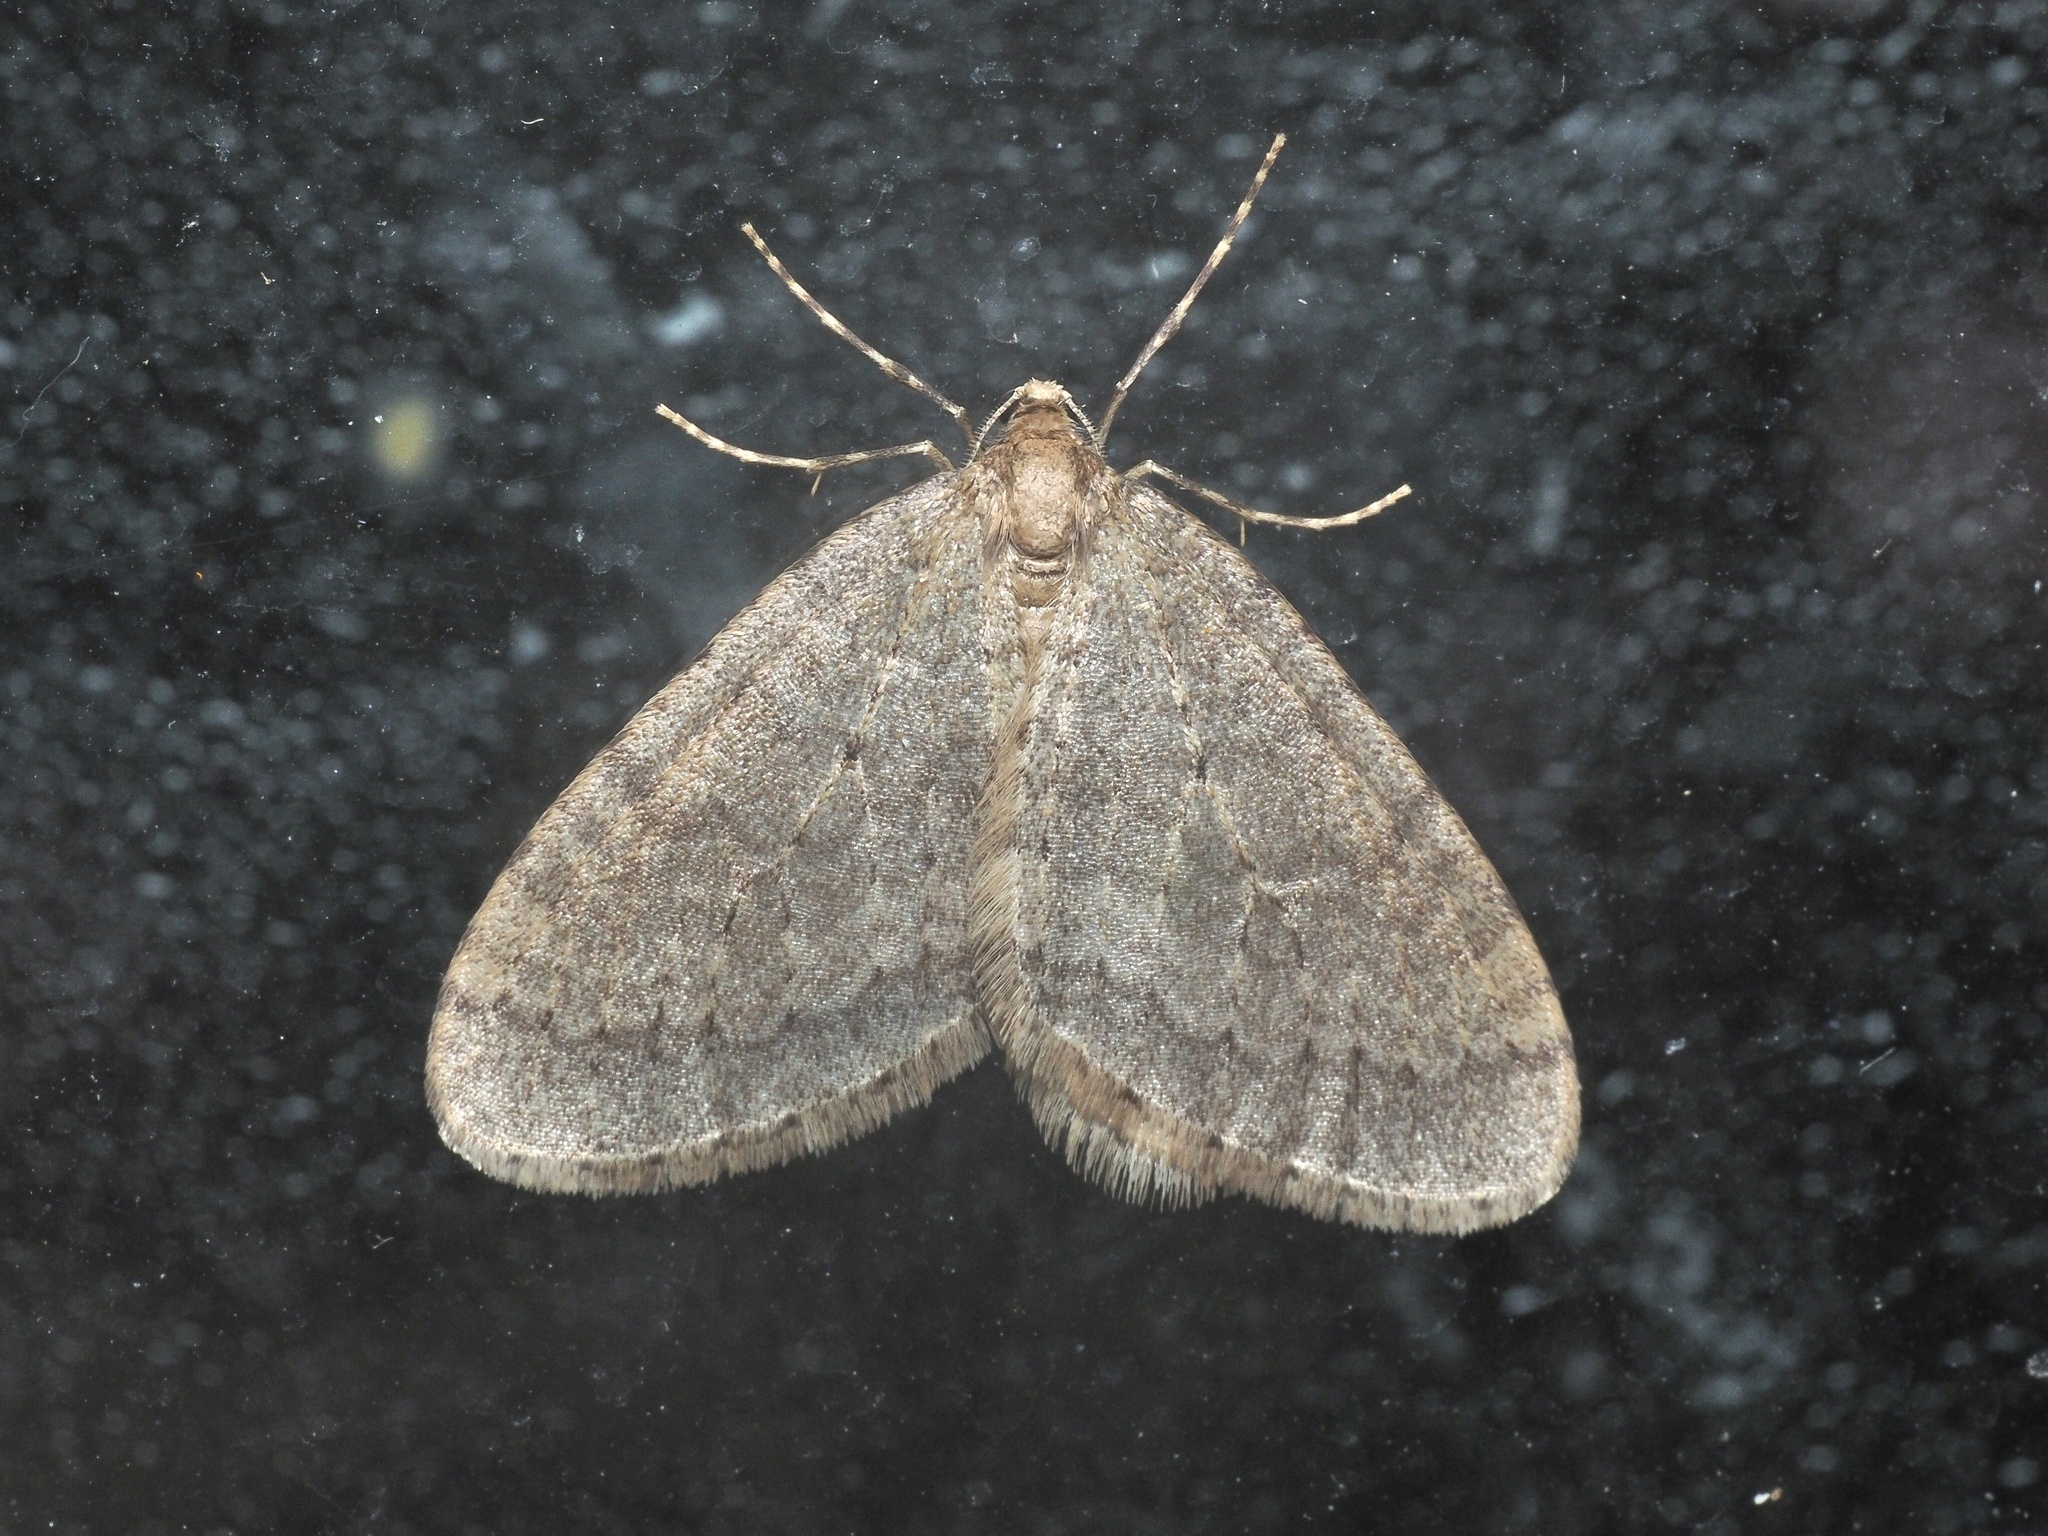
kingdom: Animalia
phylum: Arthropoda
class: Insecta
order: Lepidoptera
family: Geometridae
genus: Operophtera
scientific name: Operophtera brumata
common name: Winter moth
